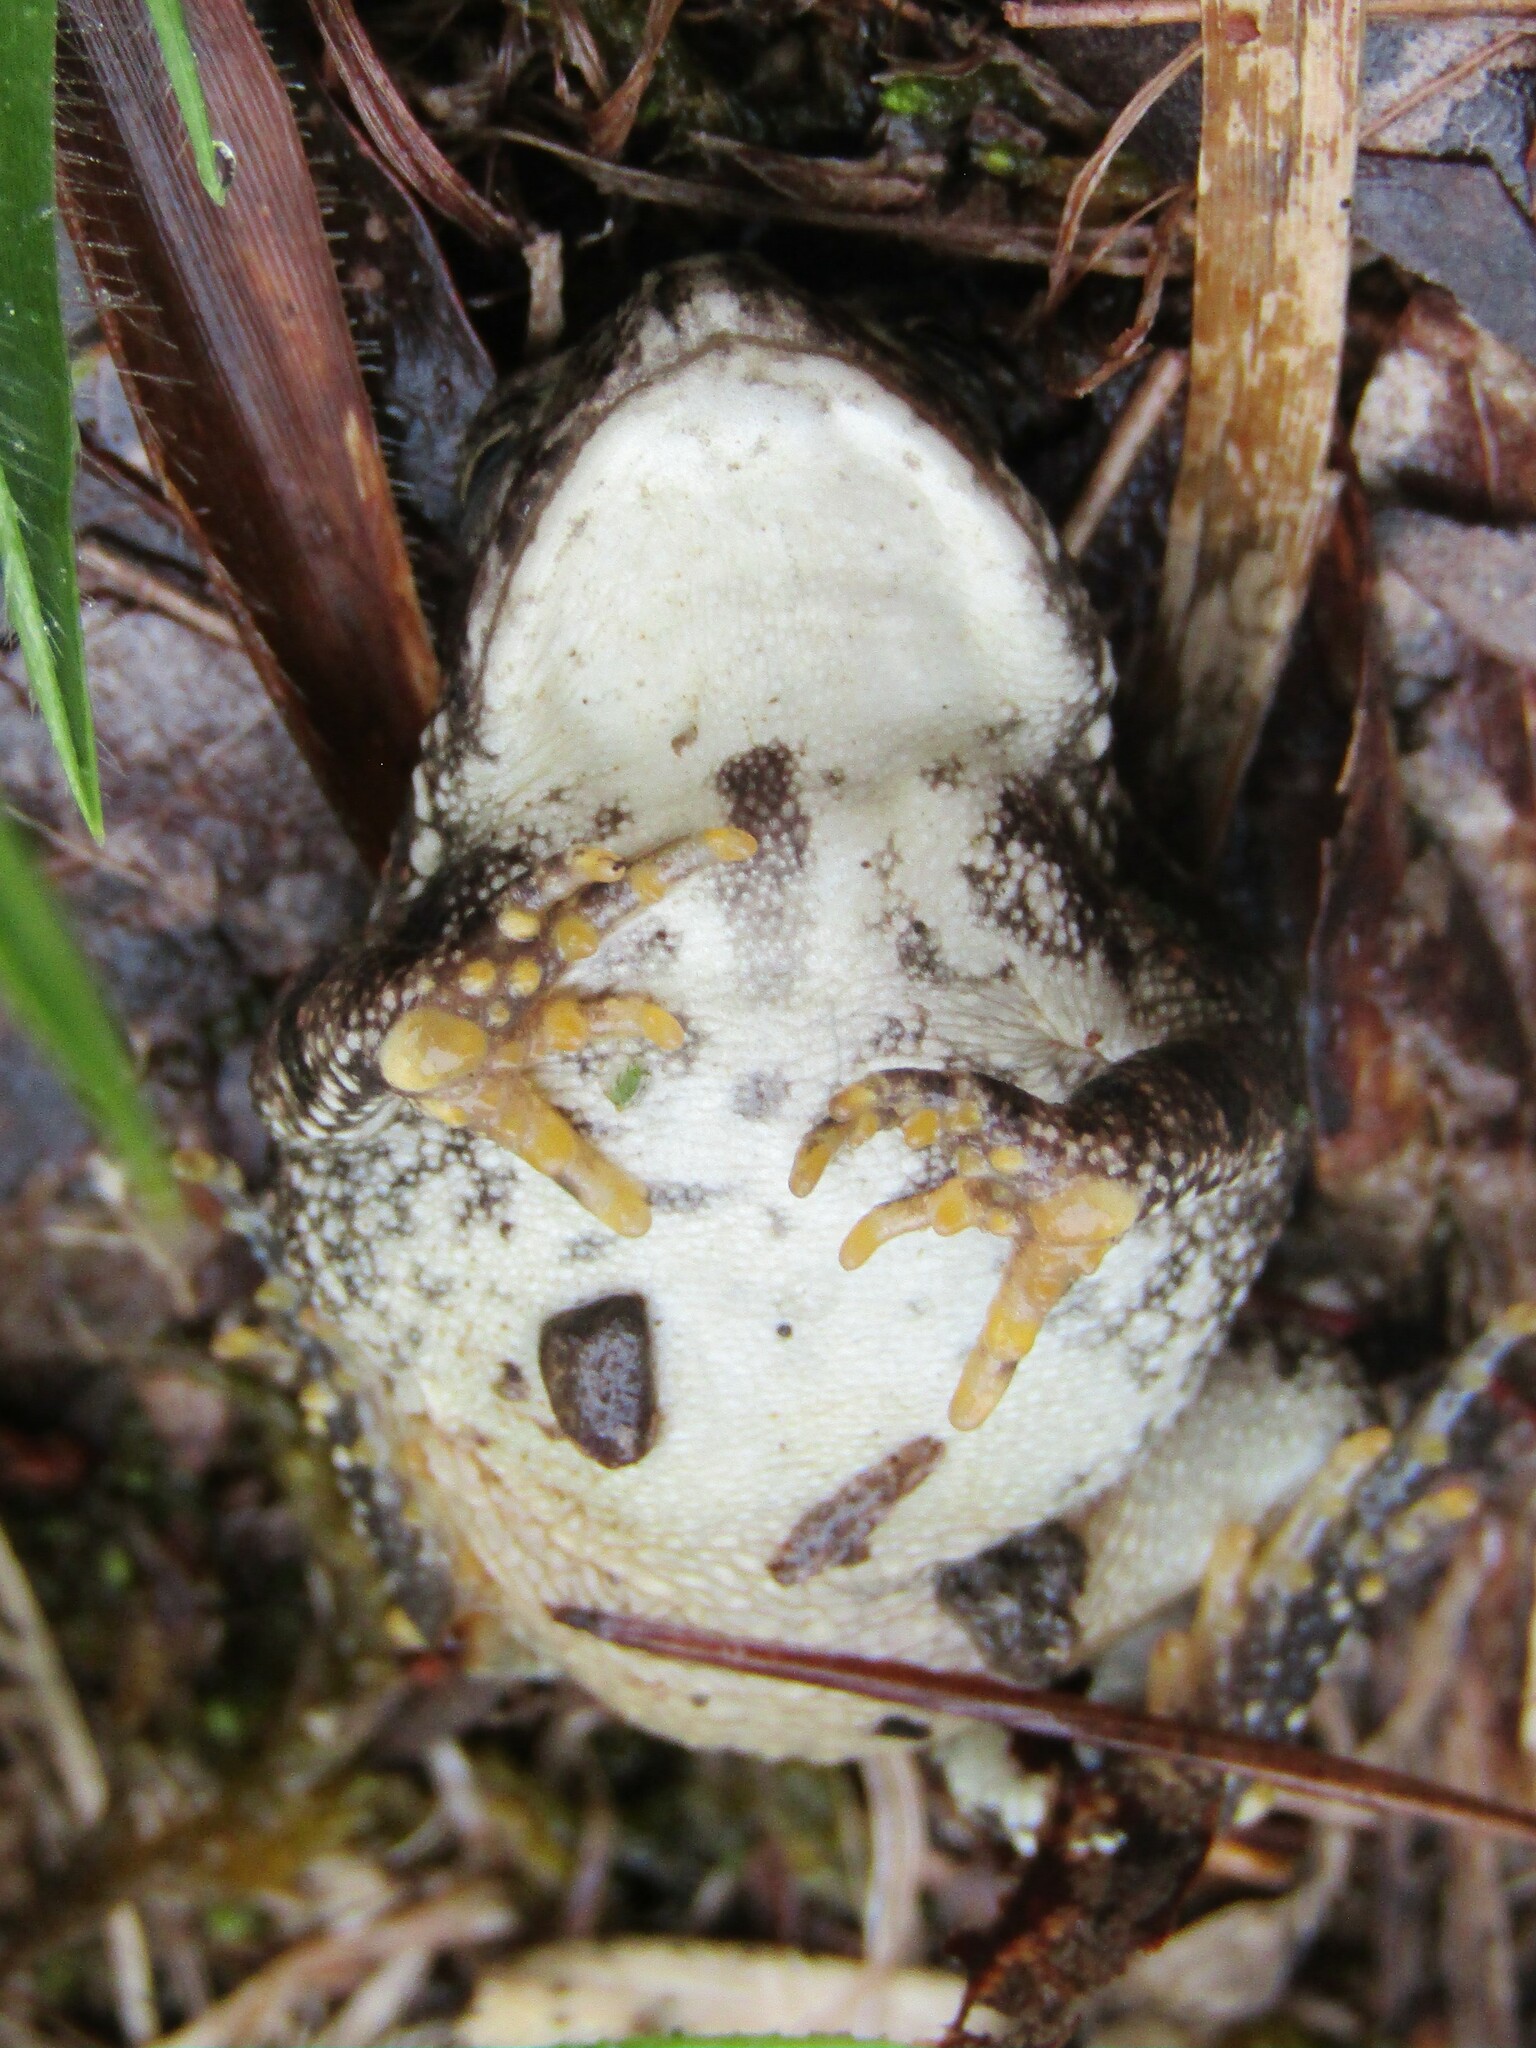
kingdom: Animalia
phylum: Chordata
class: Amphibia
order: Anura
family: Bufonidae
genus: Anaxyrus
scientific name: Anaxyrus fowleri
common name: Fowler's toad
